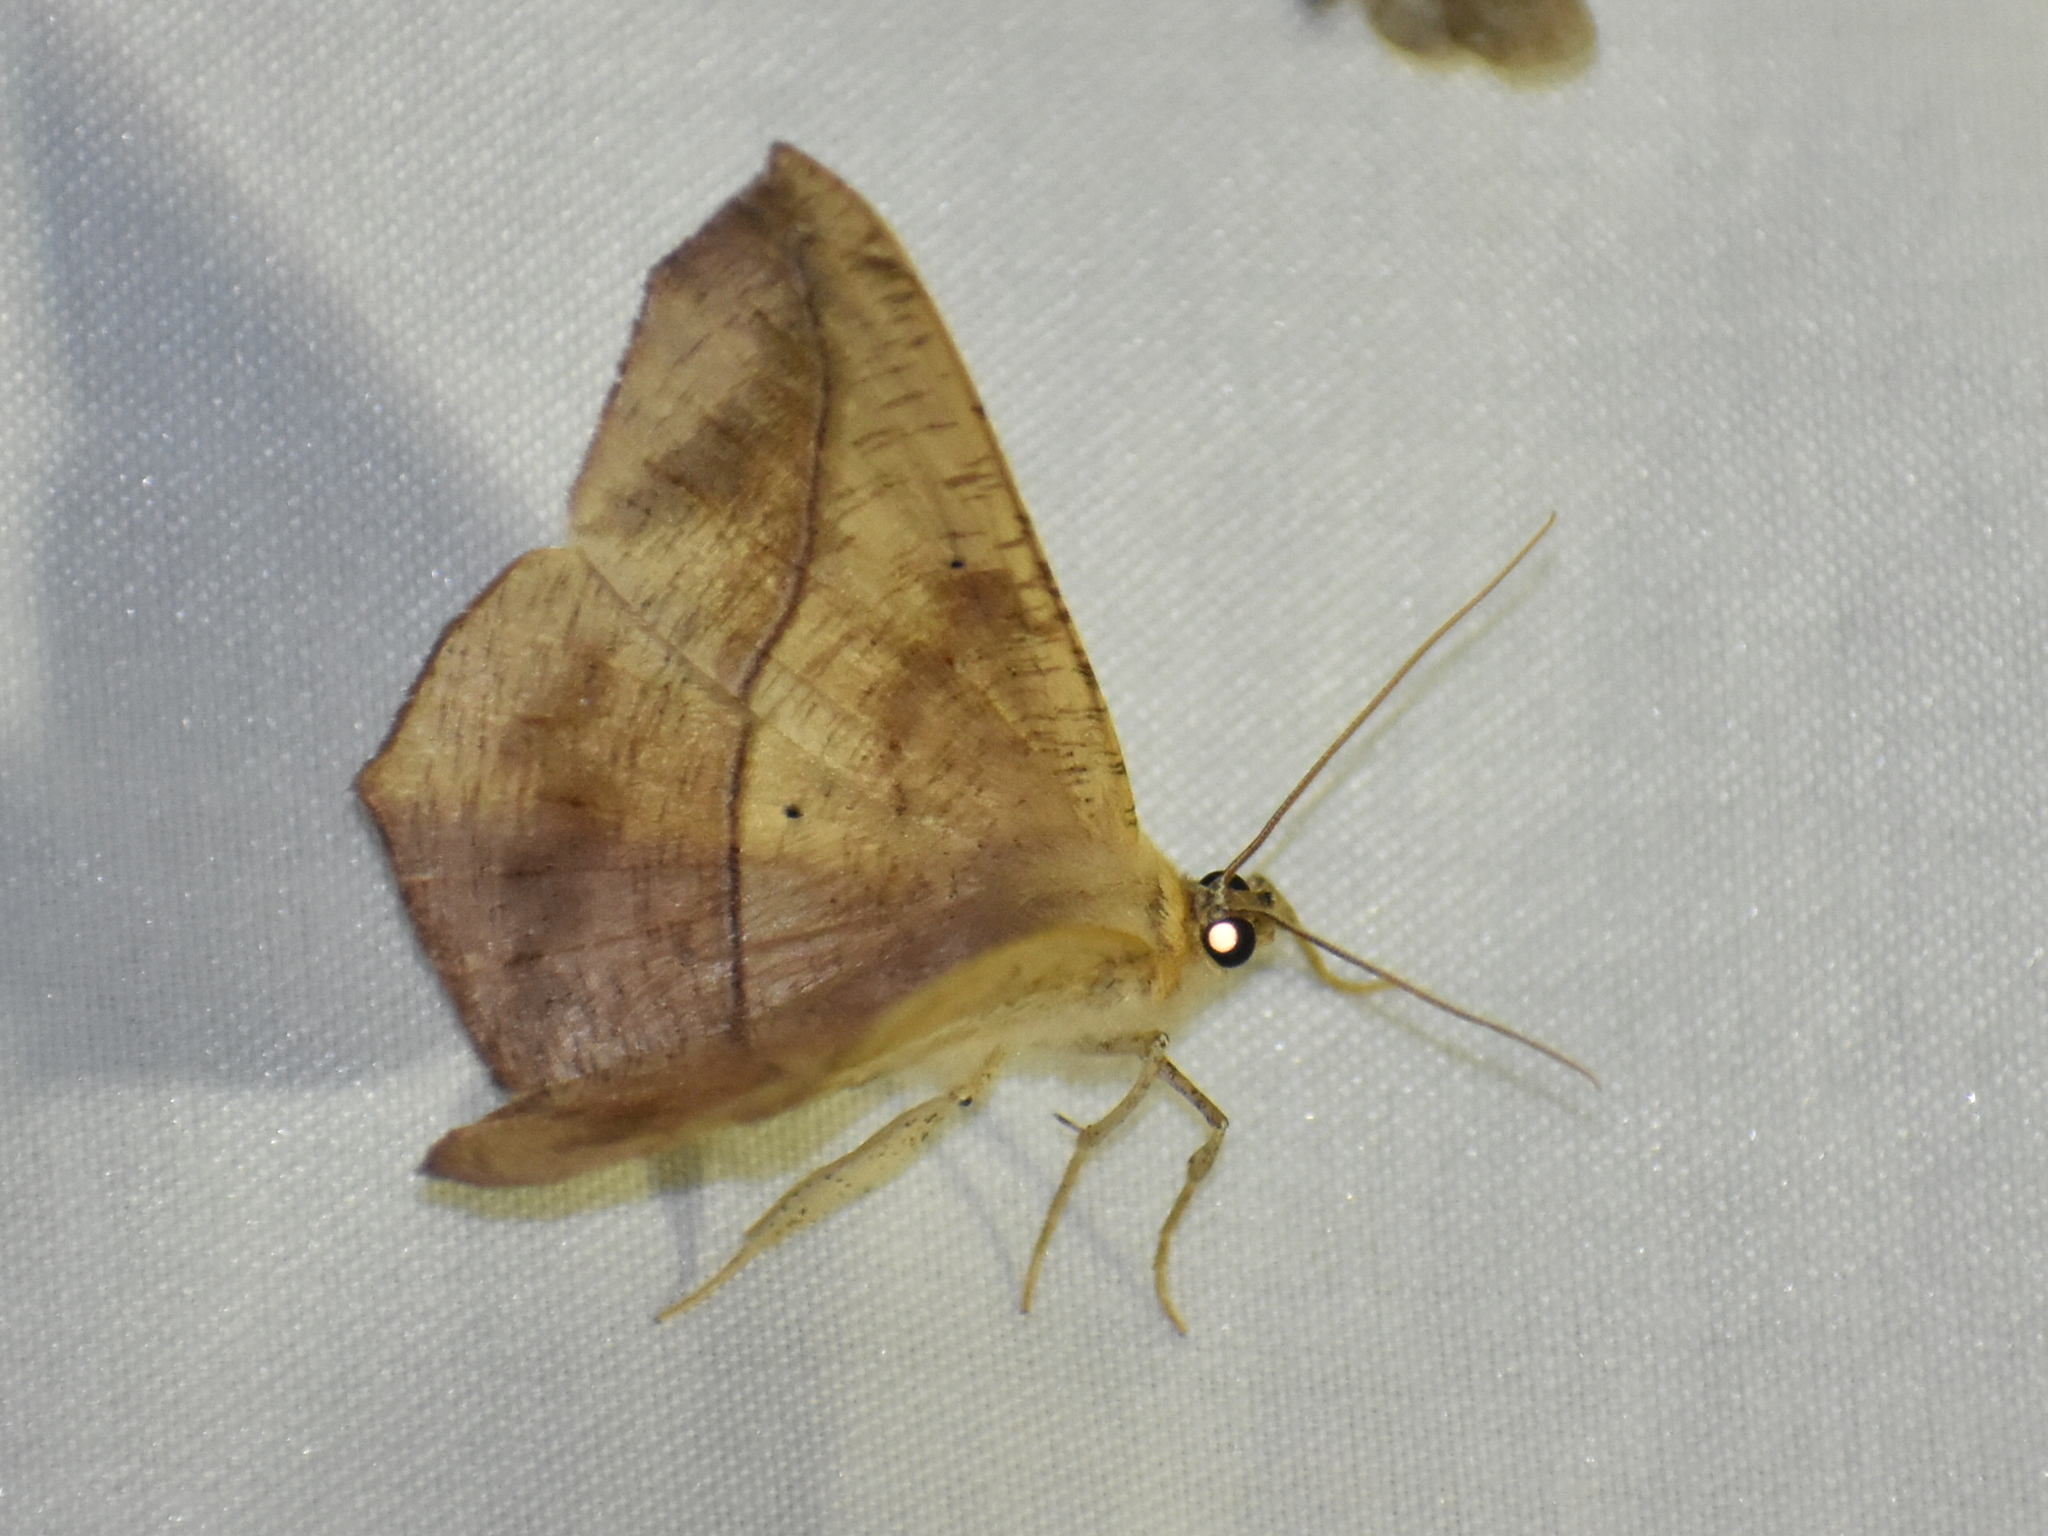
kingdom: Animalia
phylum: Arthropoda
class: Insecta
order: Lepidoptera
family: Geometridae
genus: Prochoerodes
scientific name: Prochoerodes lineola
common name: Large maple spanworm
